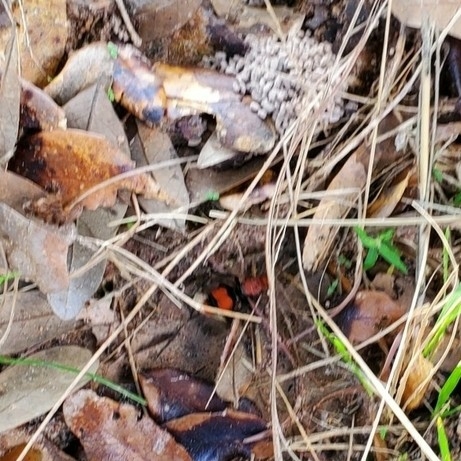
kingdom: Animalia
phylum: Arthropoda
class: Insecta
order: Hymenoptera
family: Mutillidae
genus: Dasymutilla
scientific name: Dasymutilla occidentalis
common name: Common eastern velvet ant
